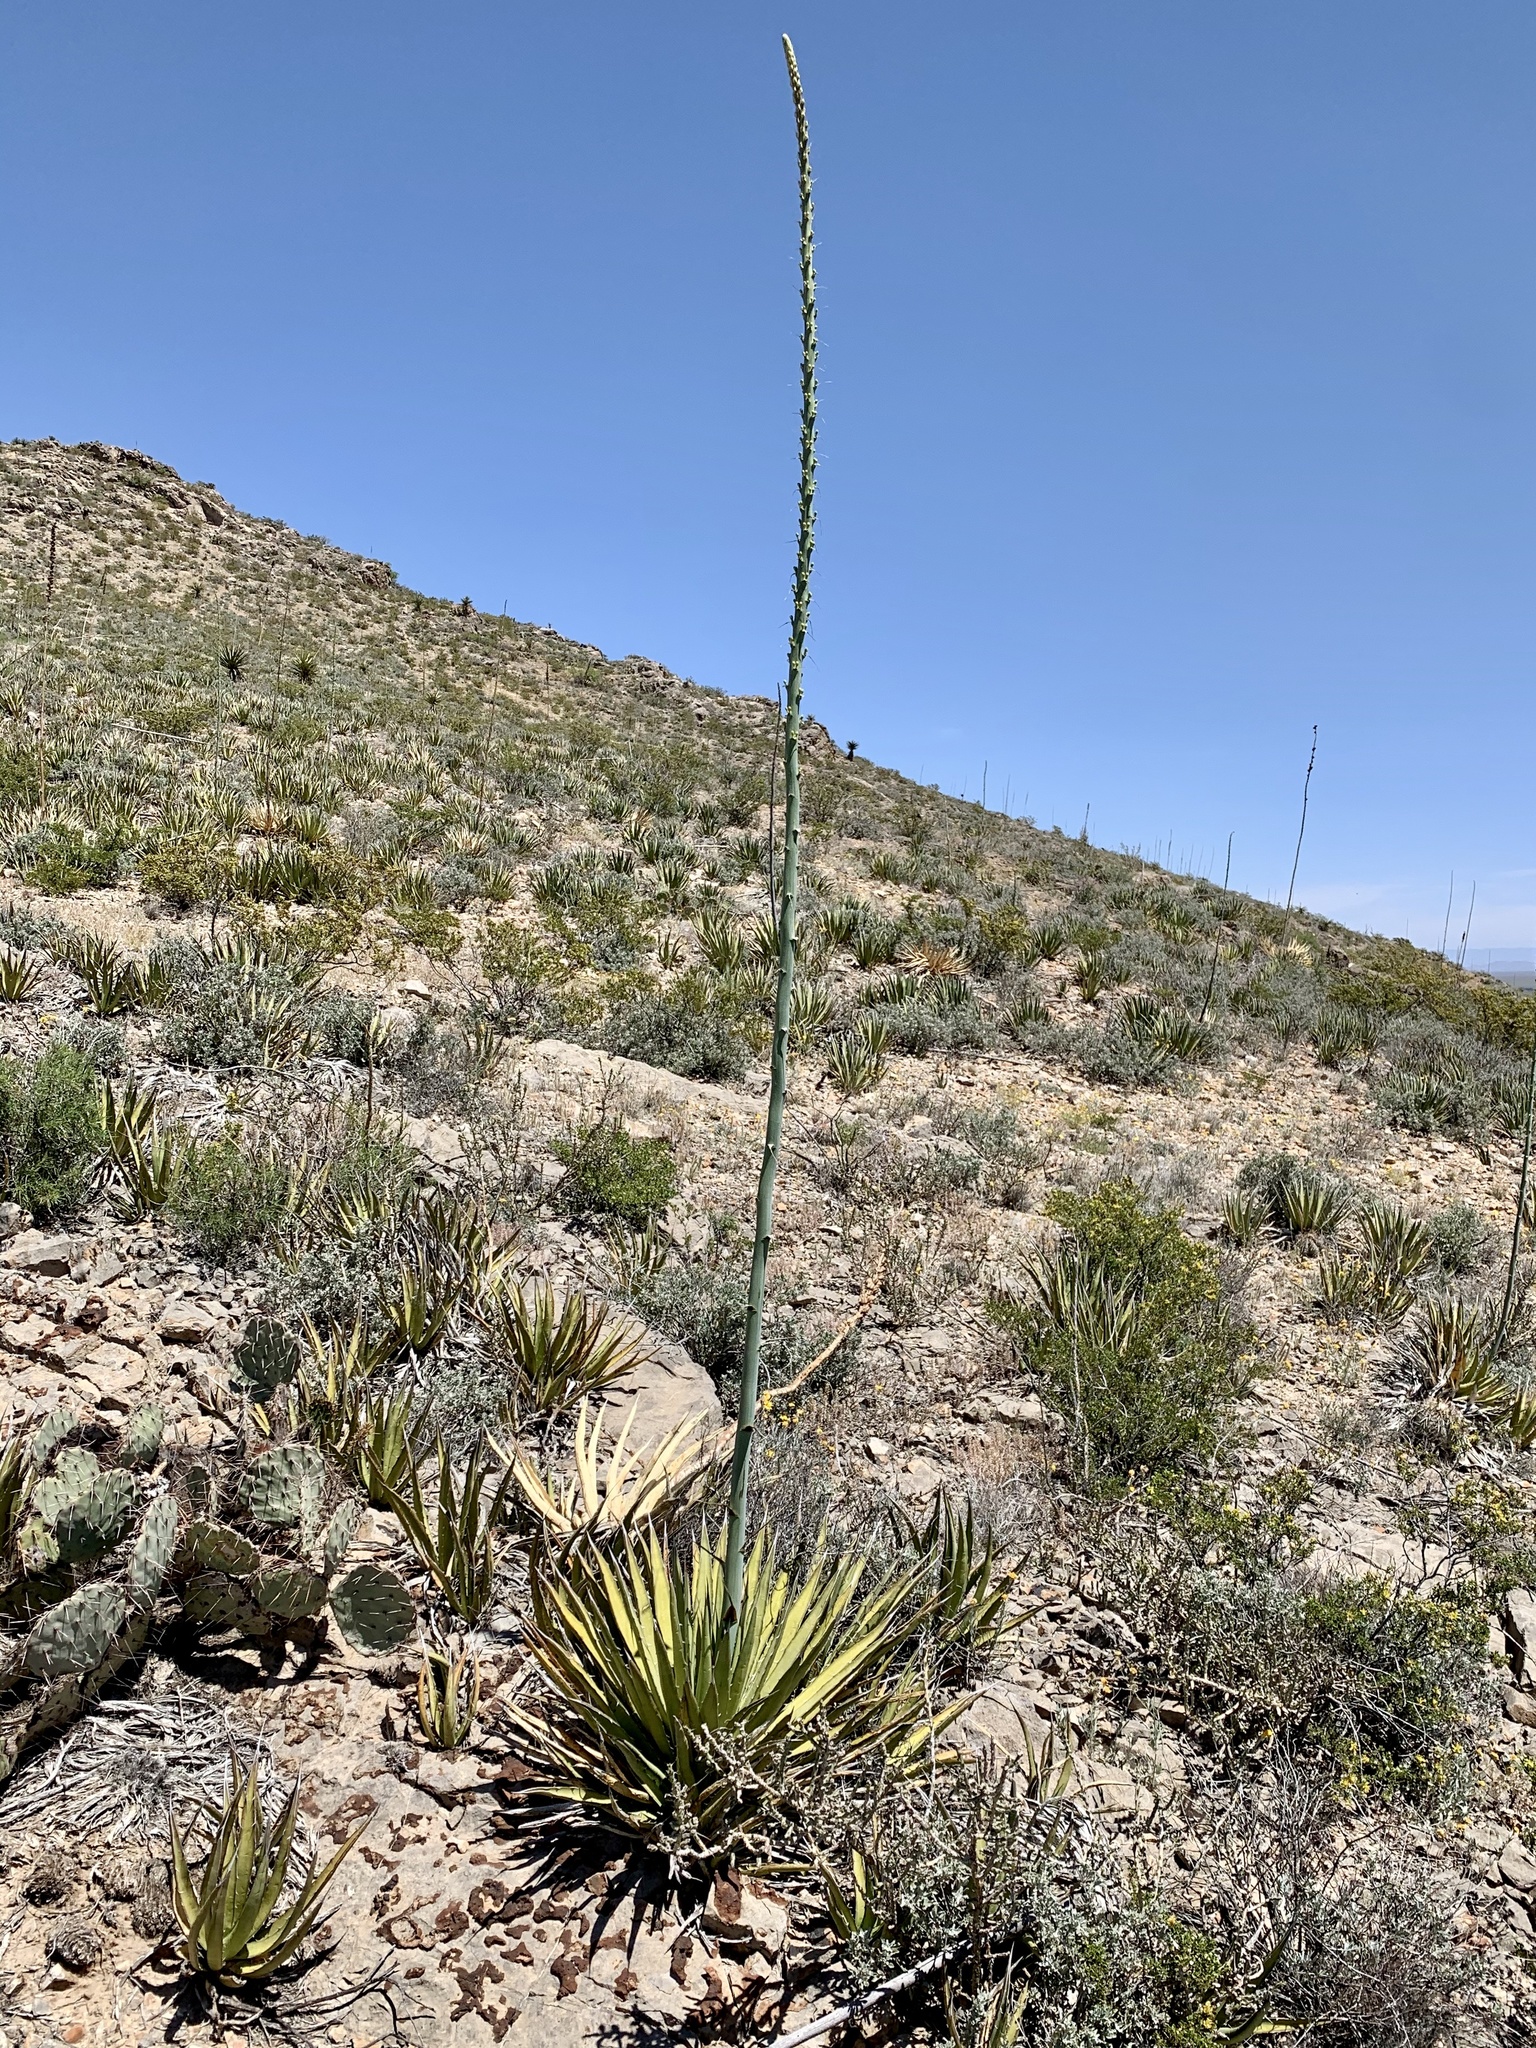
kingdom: Plantae
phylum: Tracheophyta
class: Liliopsida
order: Asparagales
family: Asparagaceae
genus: Agave
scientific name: Agave lechuguilla
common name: Lecheguilla agave
